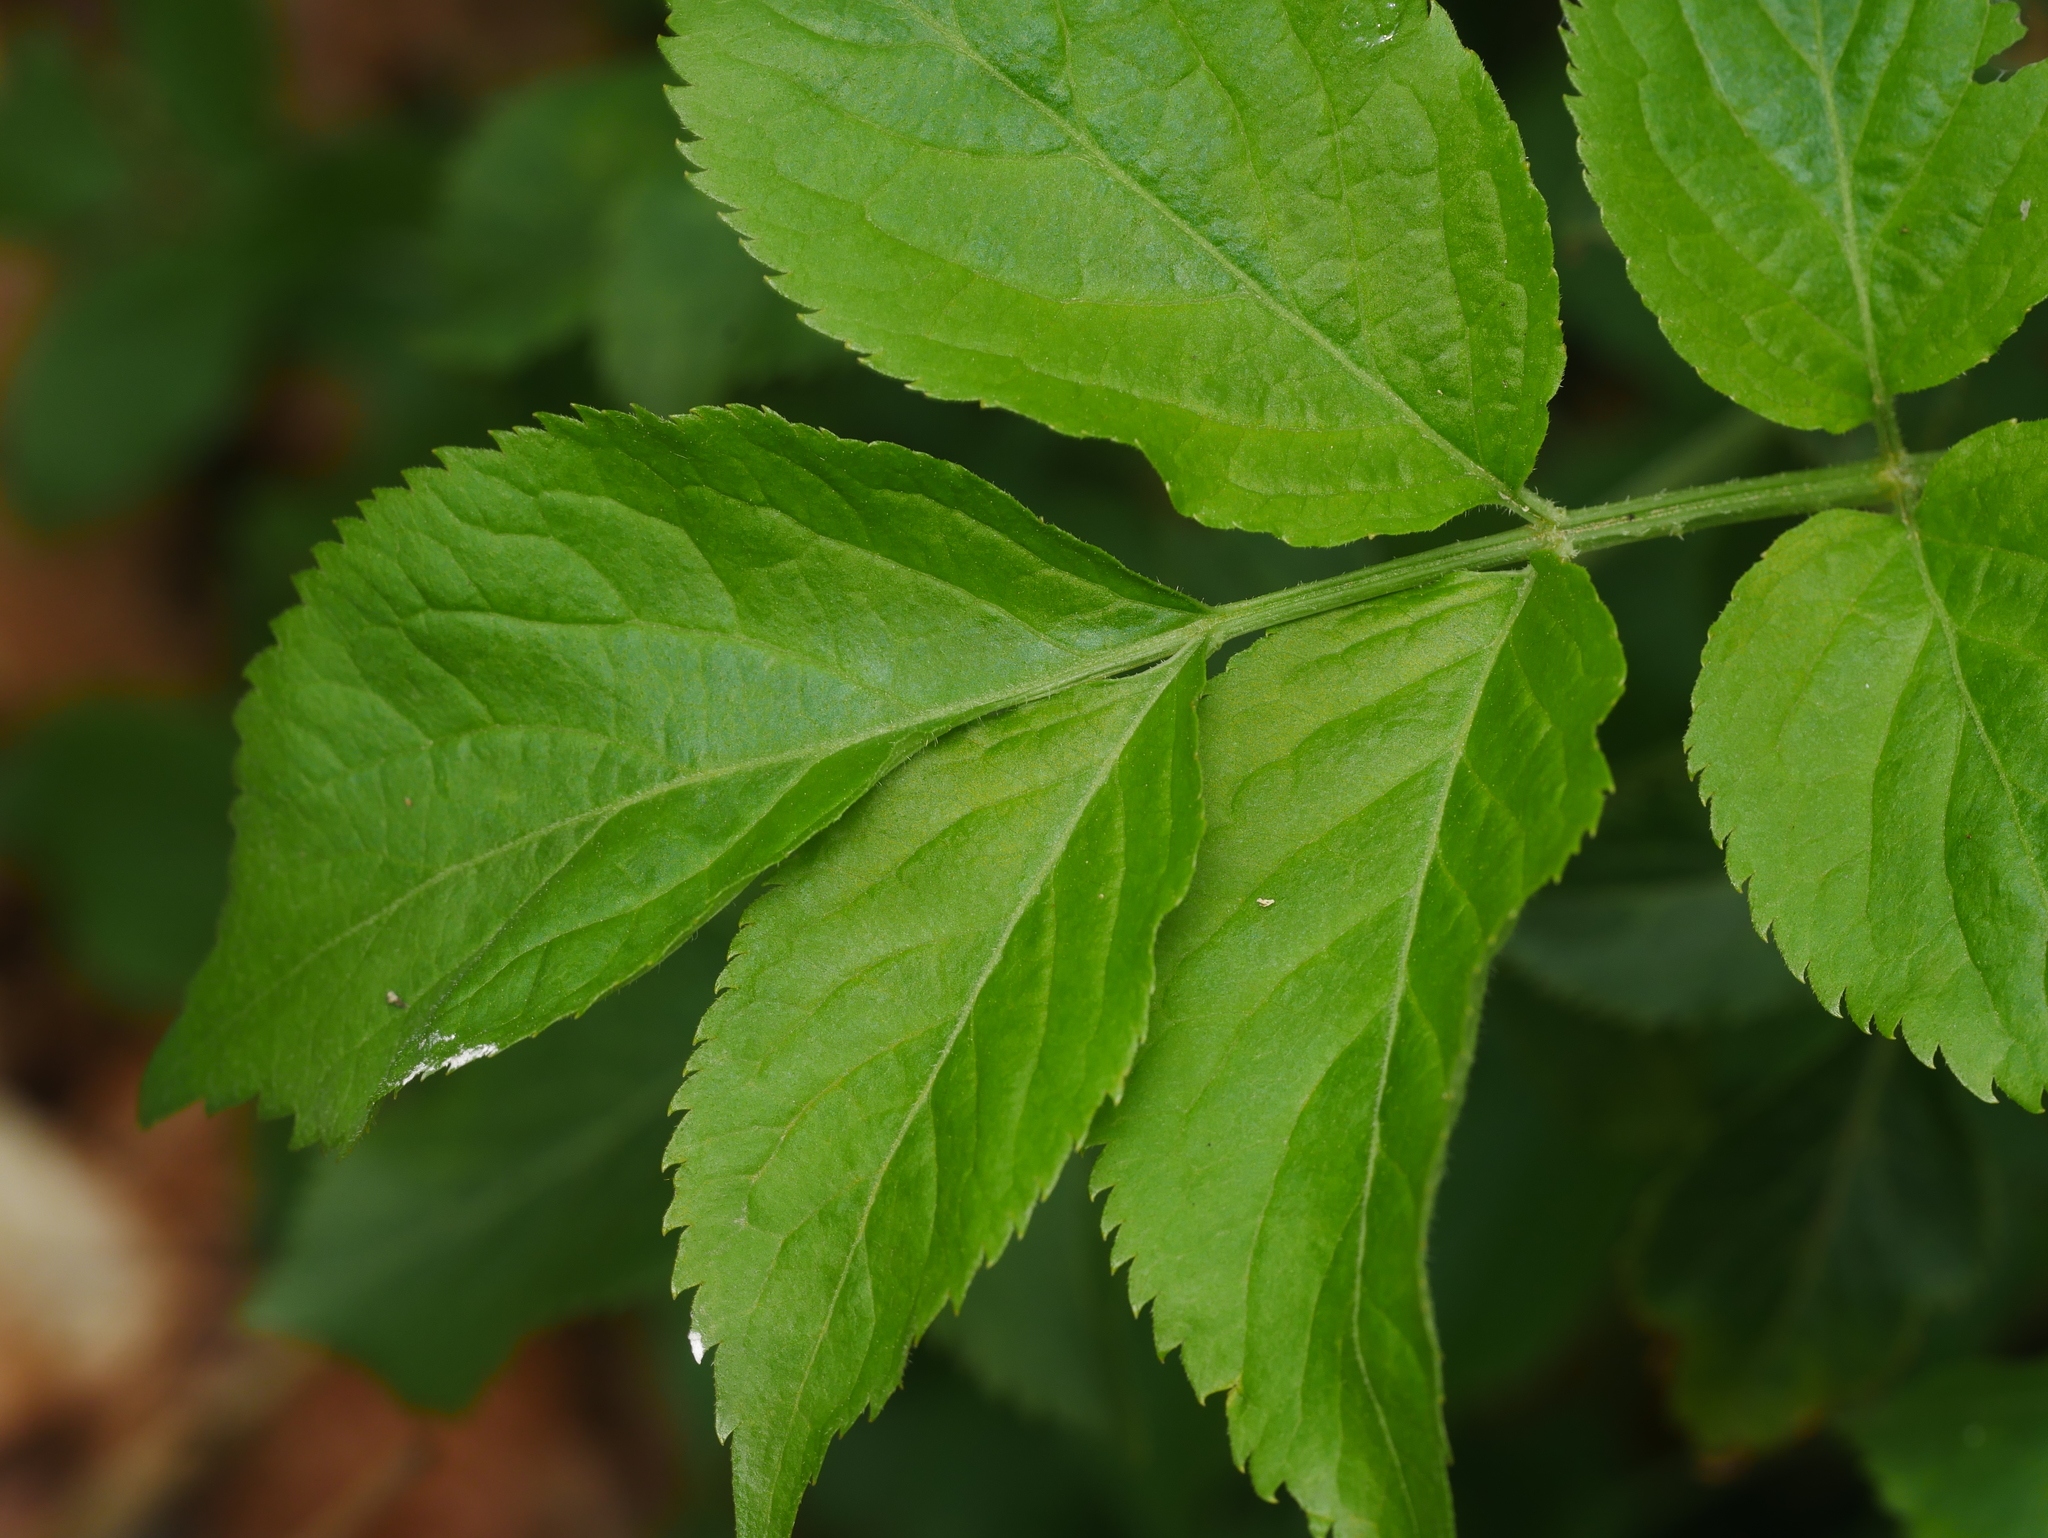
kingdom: Plantae
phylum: Tracheophyta
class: Magnoliopsida
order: Dipsacales
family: Viburnaceae
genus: Sambucus
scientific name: Sambucus nigra
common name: Elder
